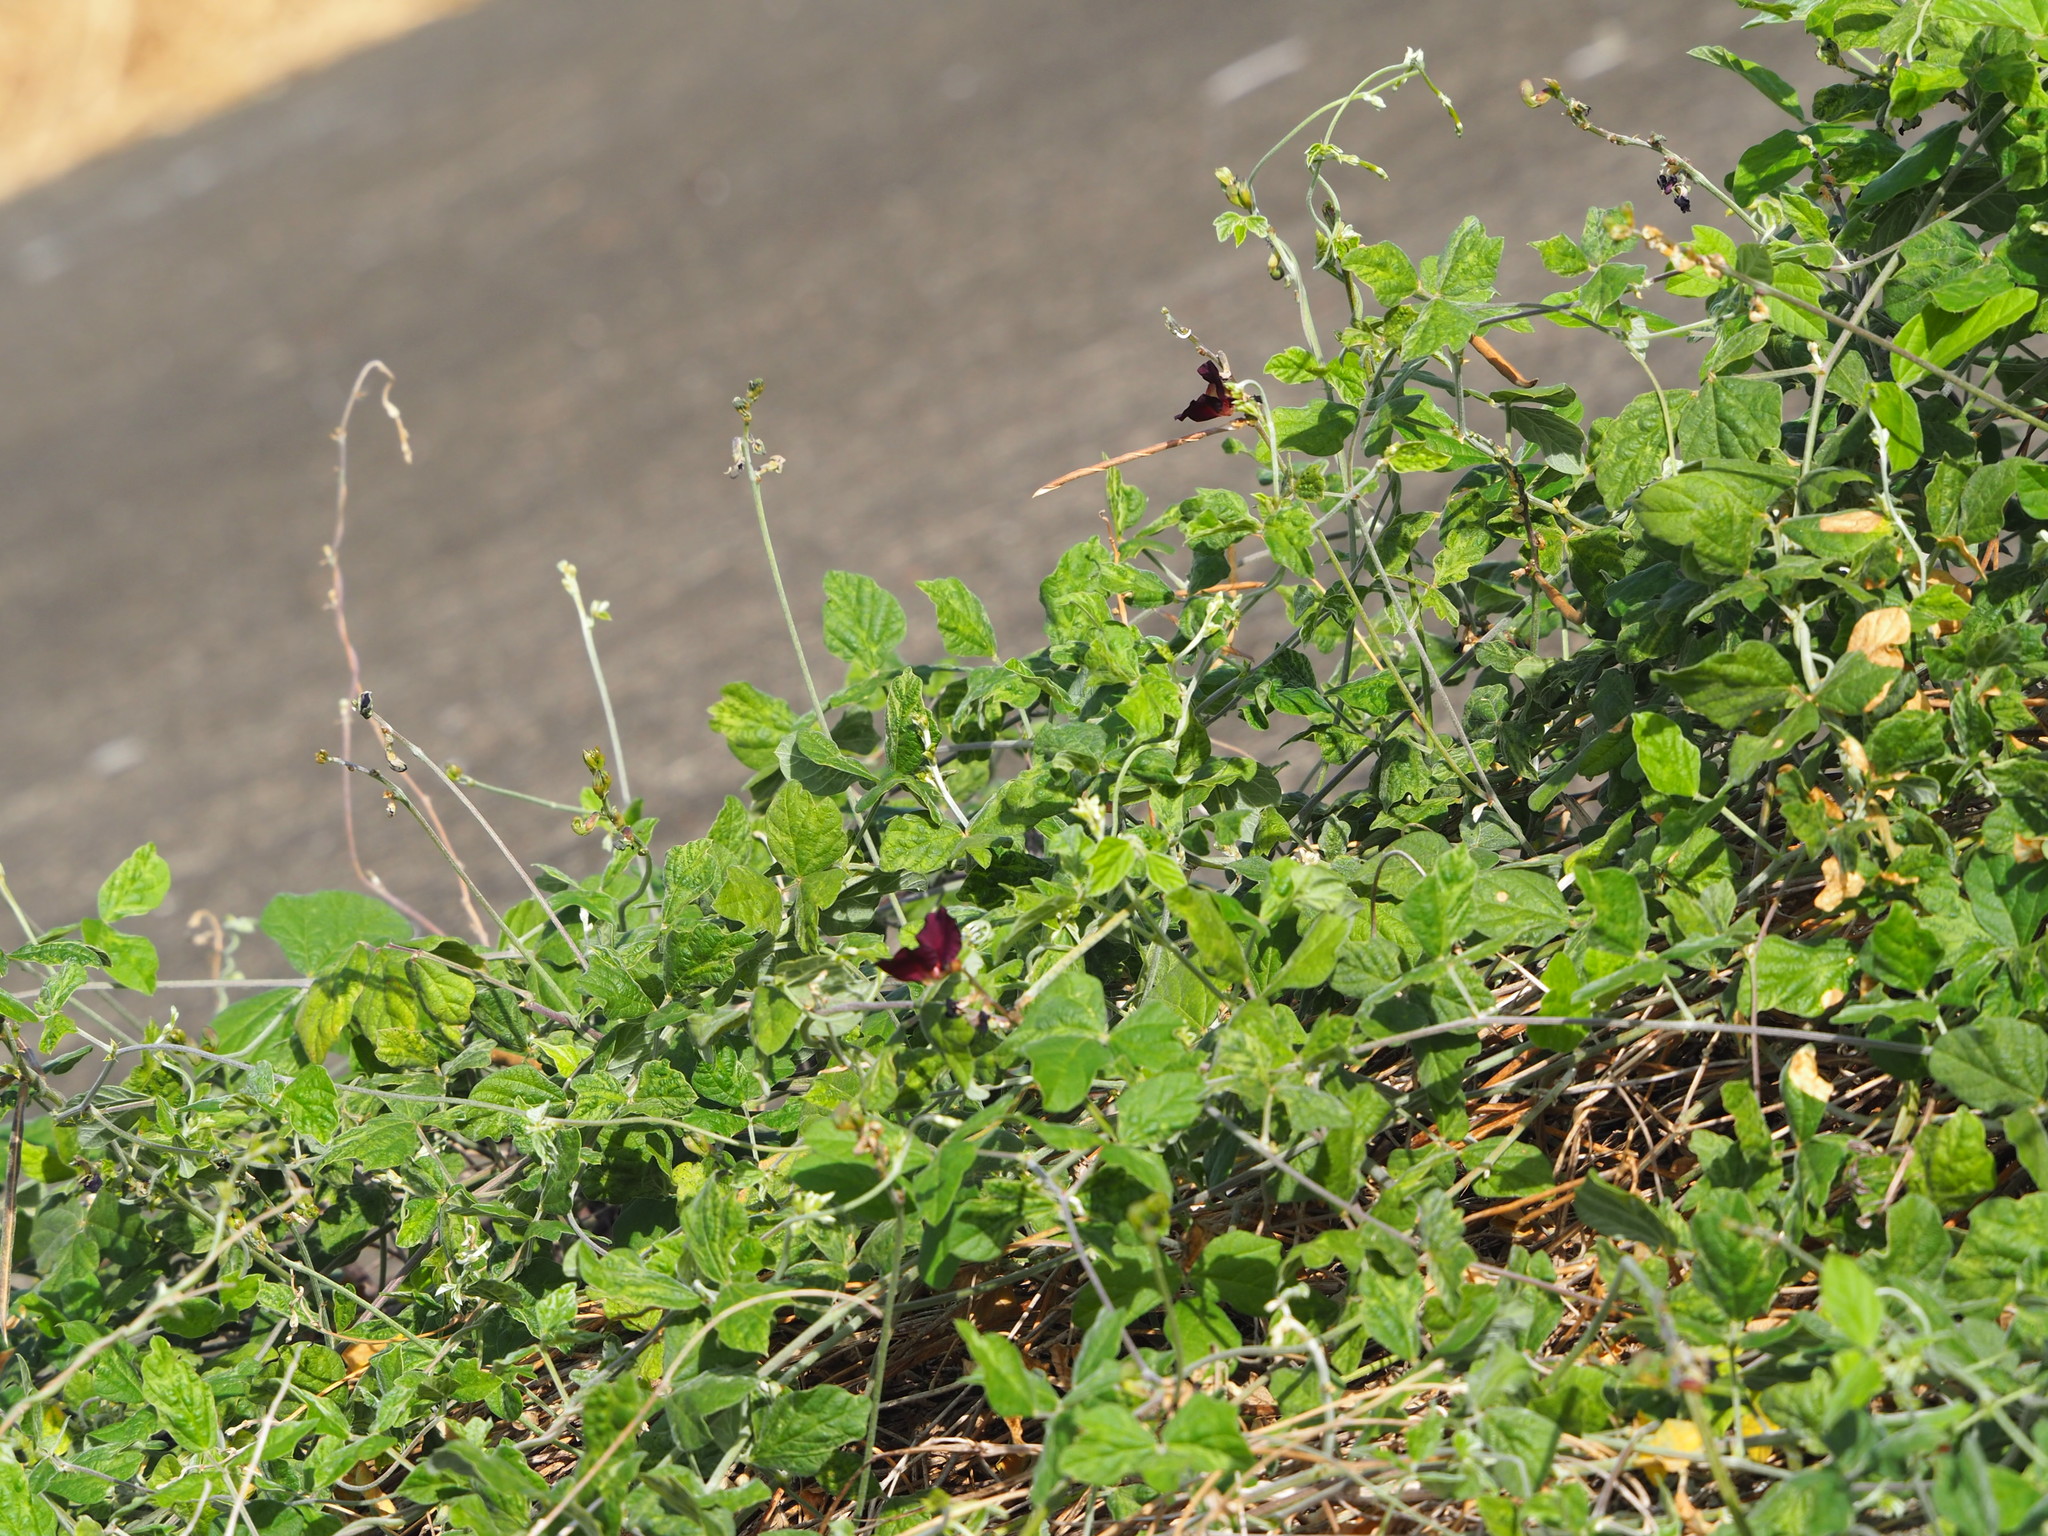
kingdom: Plantae
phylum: Tracheophyta
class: Magnoliopsida
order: Fabales
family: Fabaceae
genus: Macroptilium
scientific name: Macroptilium atropurpureum
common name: Purple bushbean
